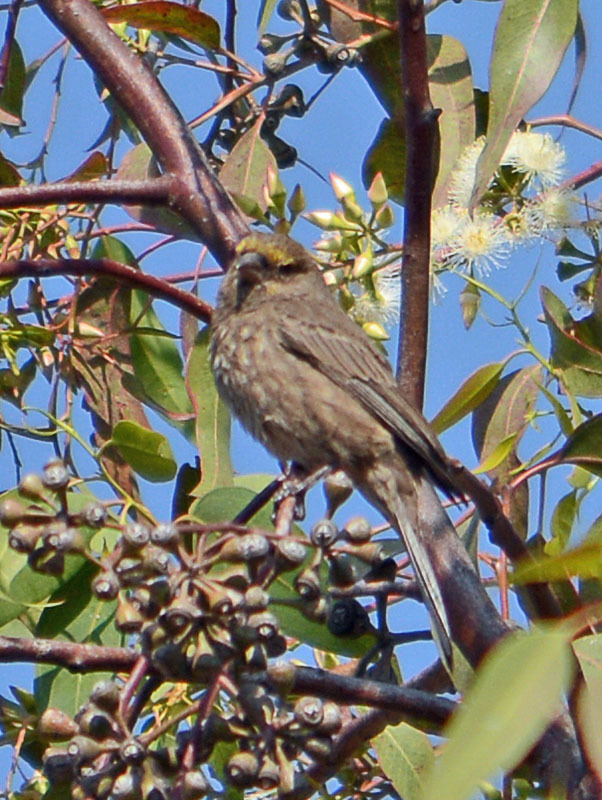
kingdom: Animalia
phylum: Chordata
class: Aves
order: Passeriformes
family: Fringillidae
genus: Haemorhous
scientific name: Haemorhous mexicanus
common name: House finch
